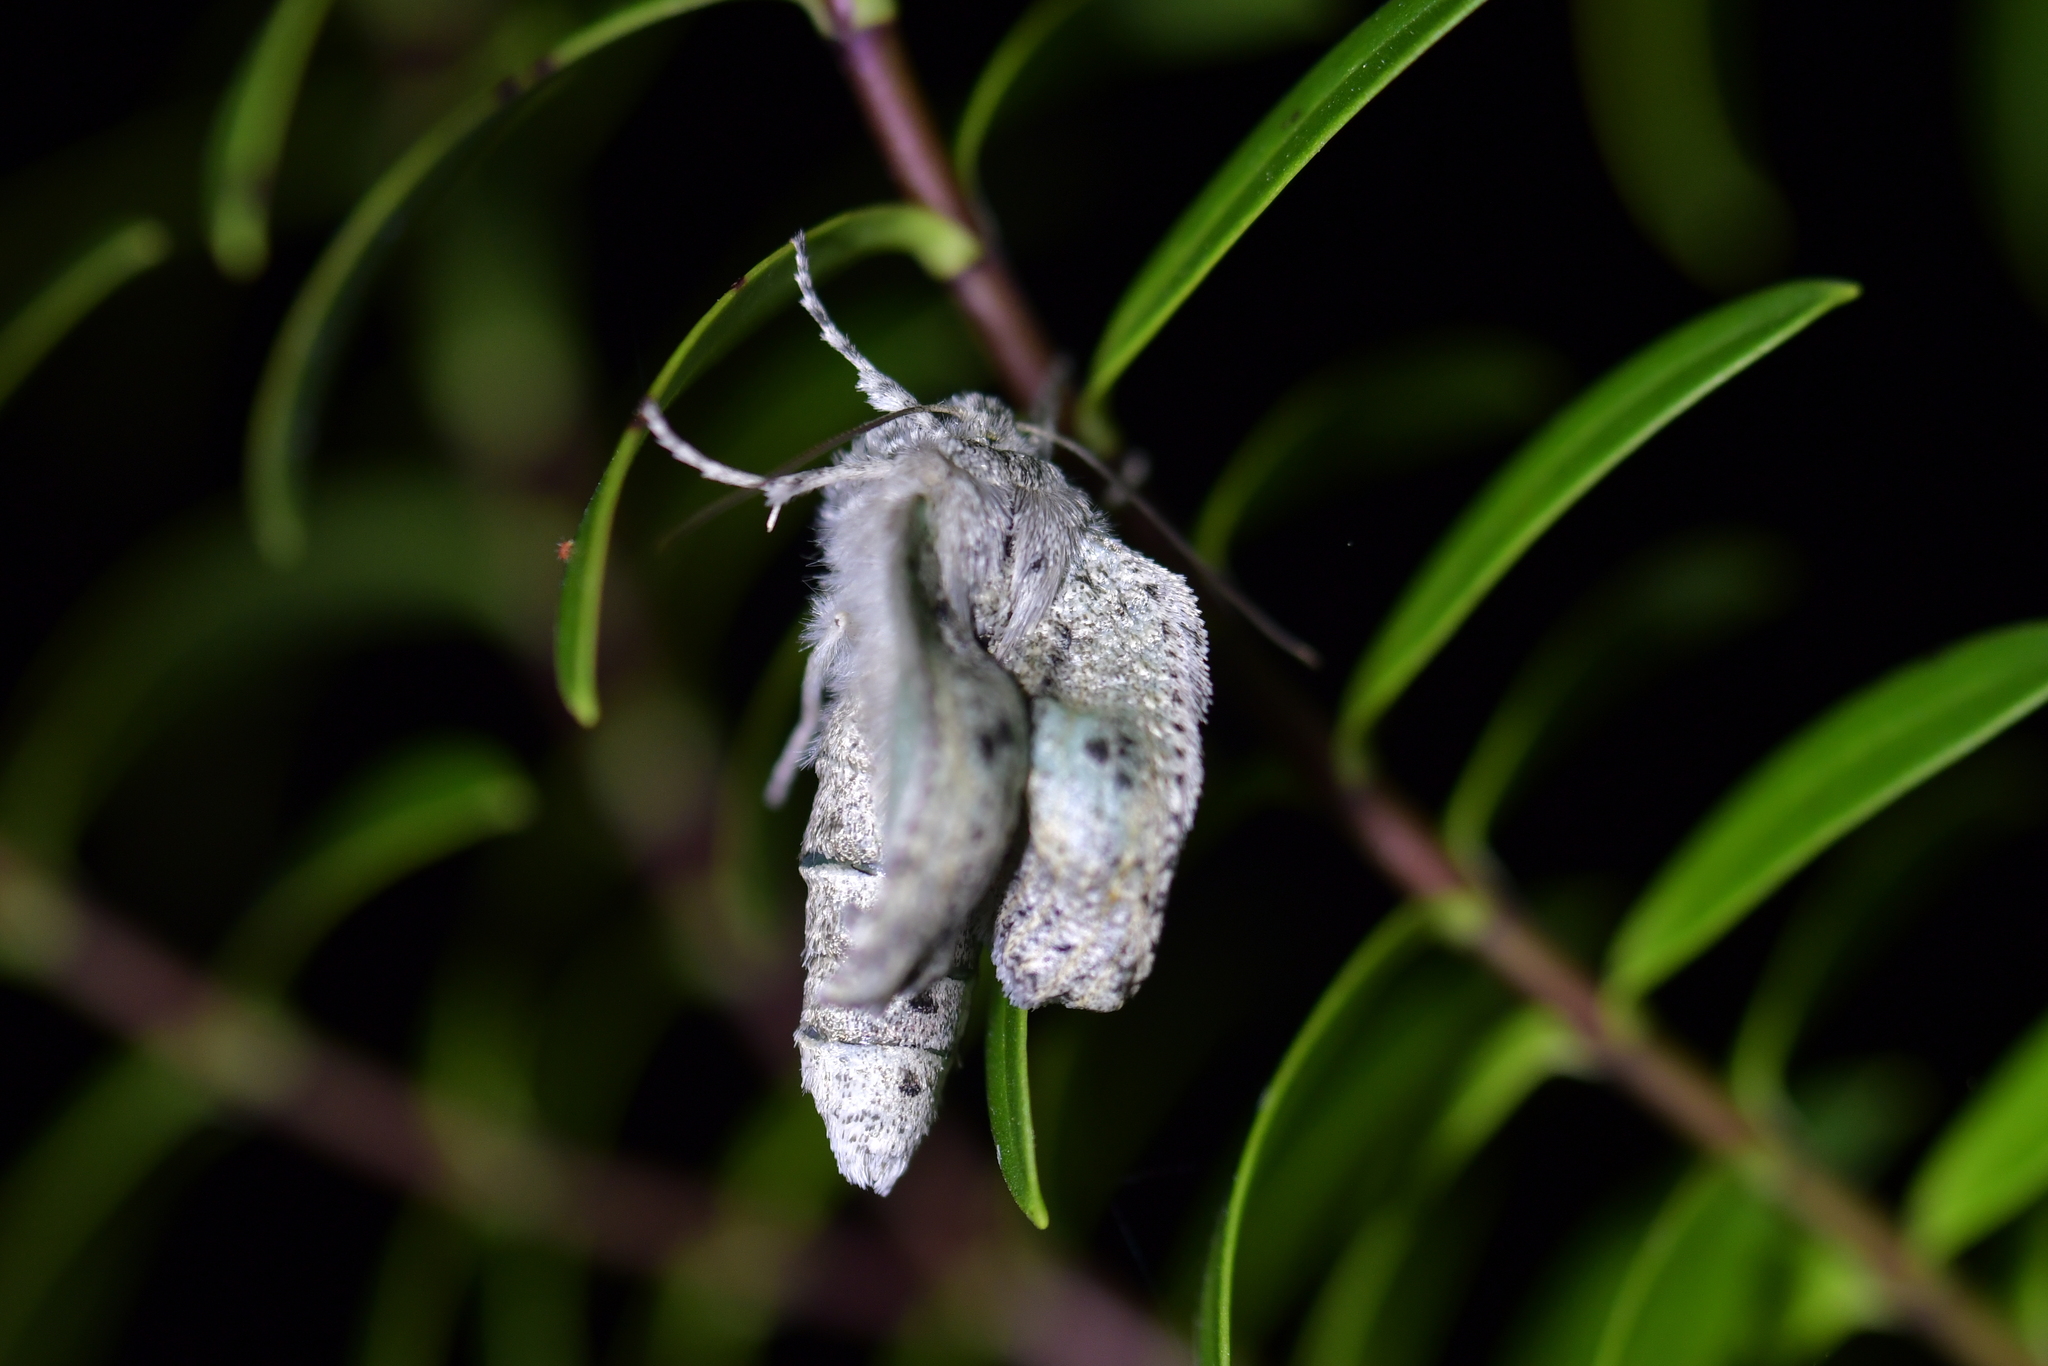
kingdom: Animalia
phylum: Arthropoda
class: Insecta
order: Lepidoptera
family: Geometridae
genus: Declana
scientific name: Declana floccosa
